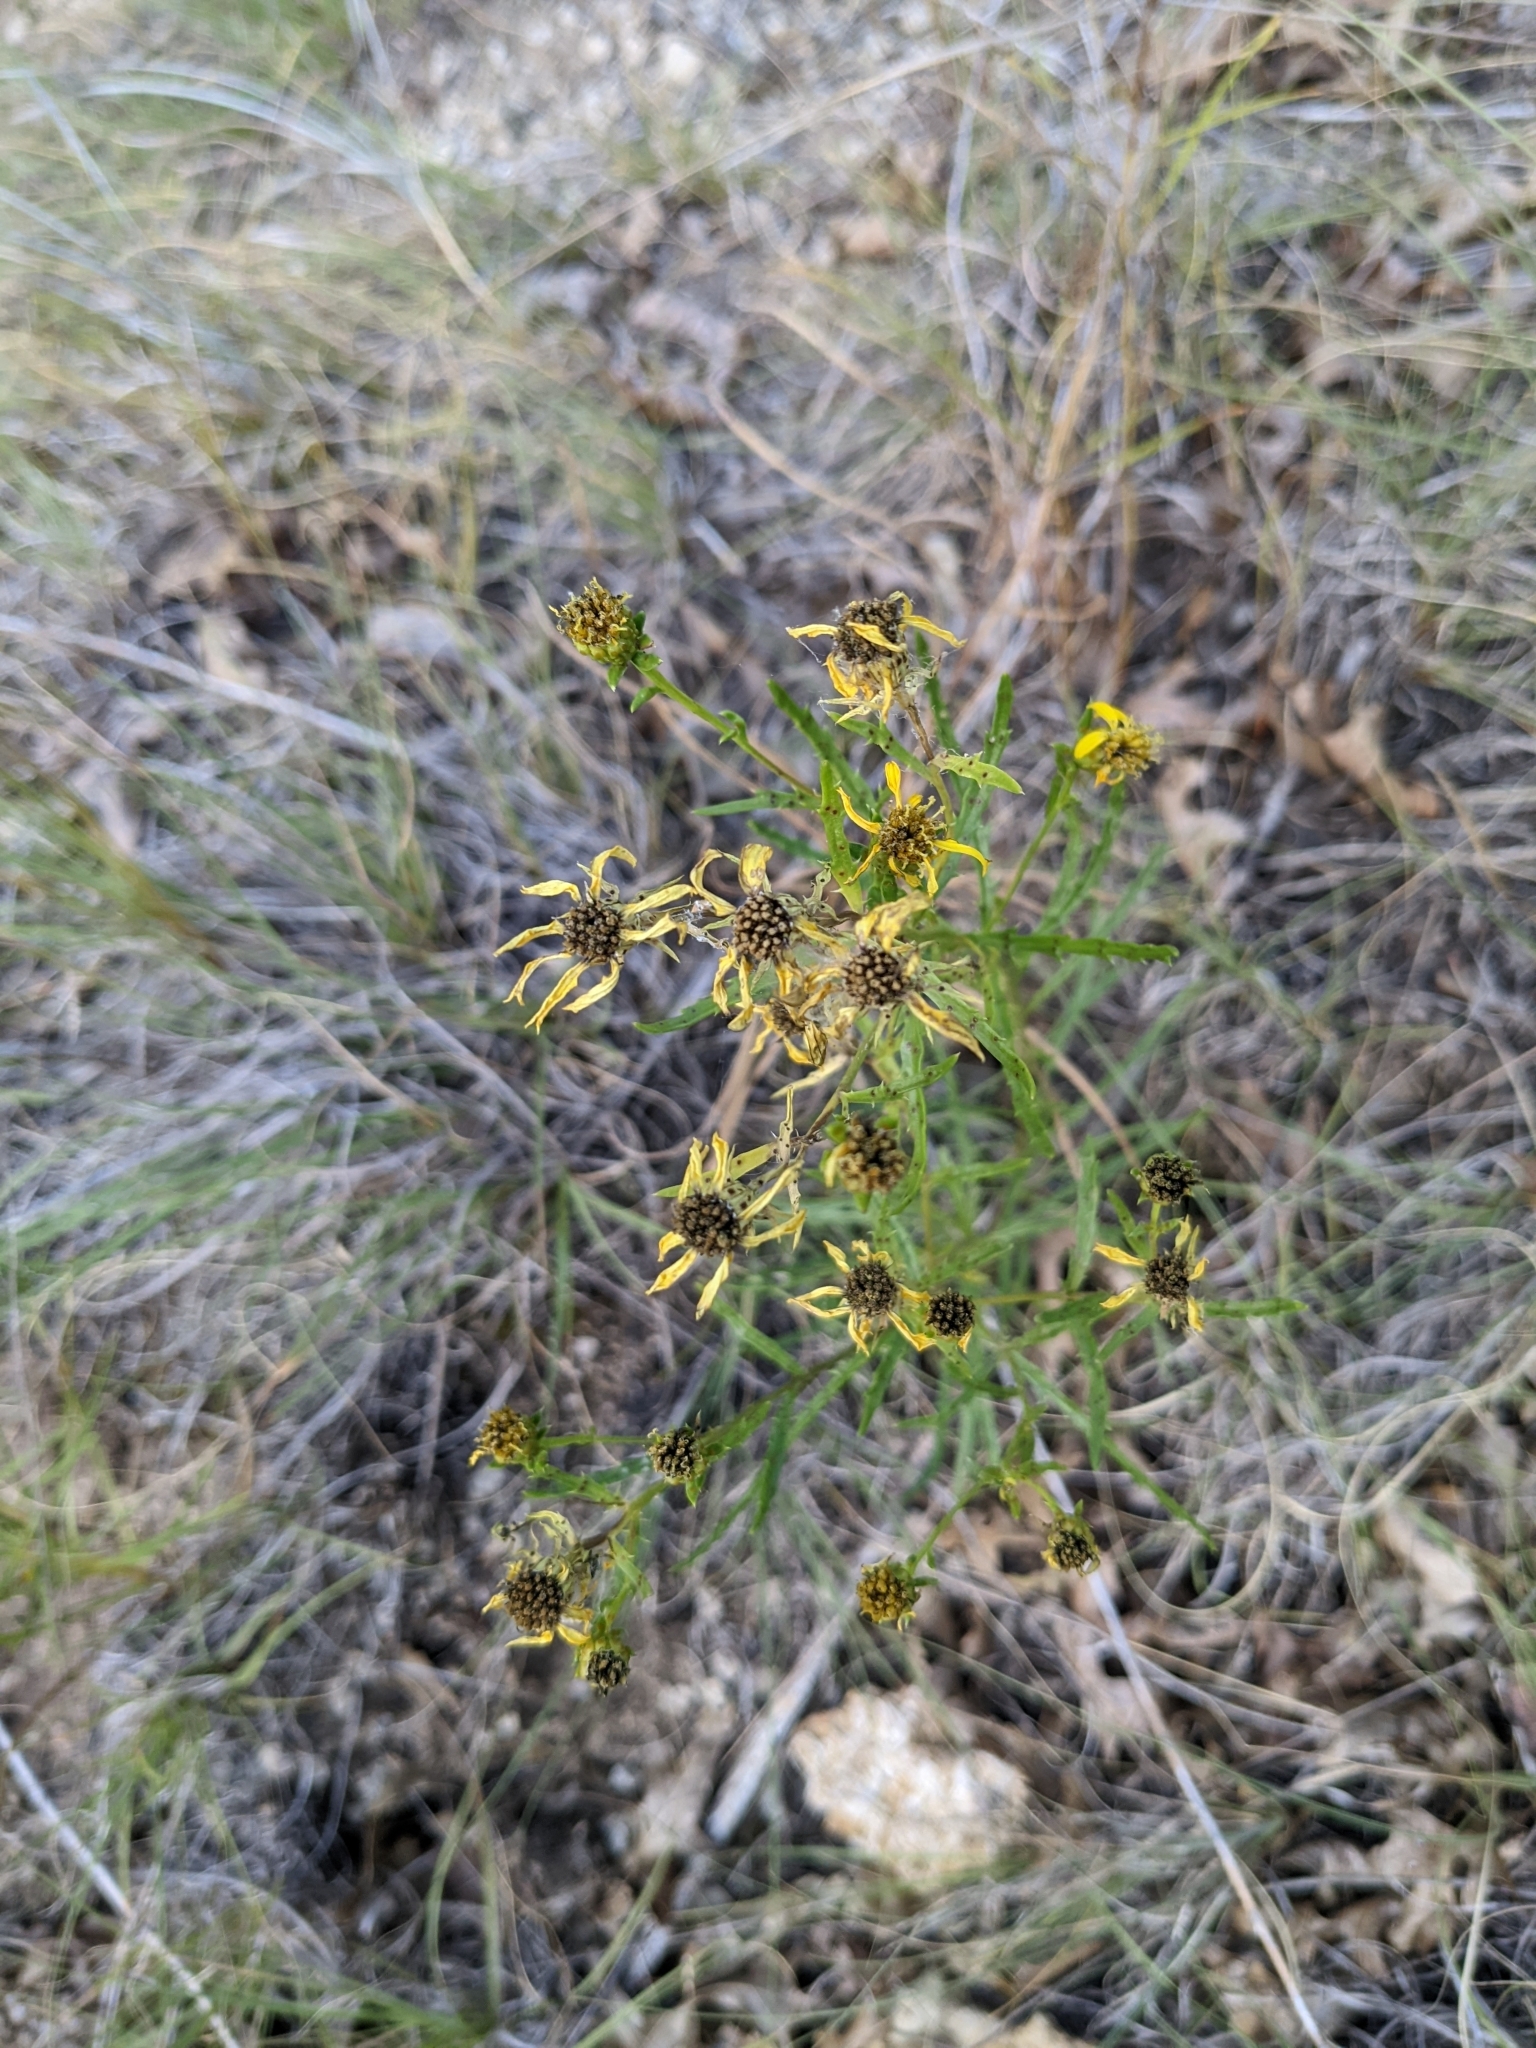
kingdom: Plantae
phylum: Tracheophyta
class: Magnoliopsida
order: Asterales
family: Asteraceae
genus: Dysodiopsis
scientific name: Dysodiopsis tagetoides
